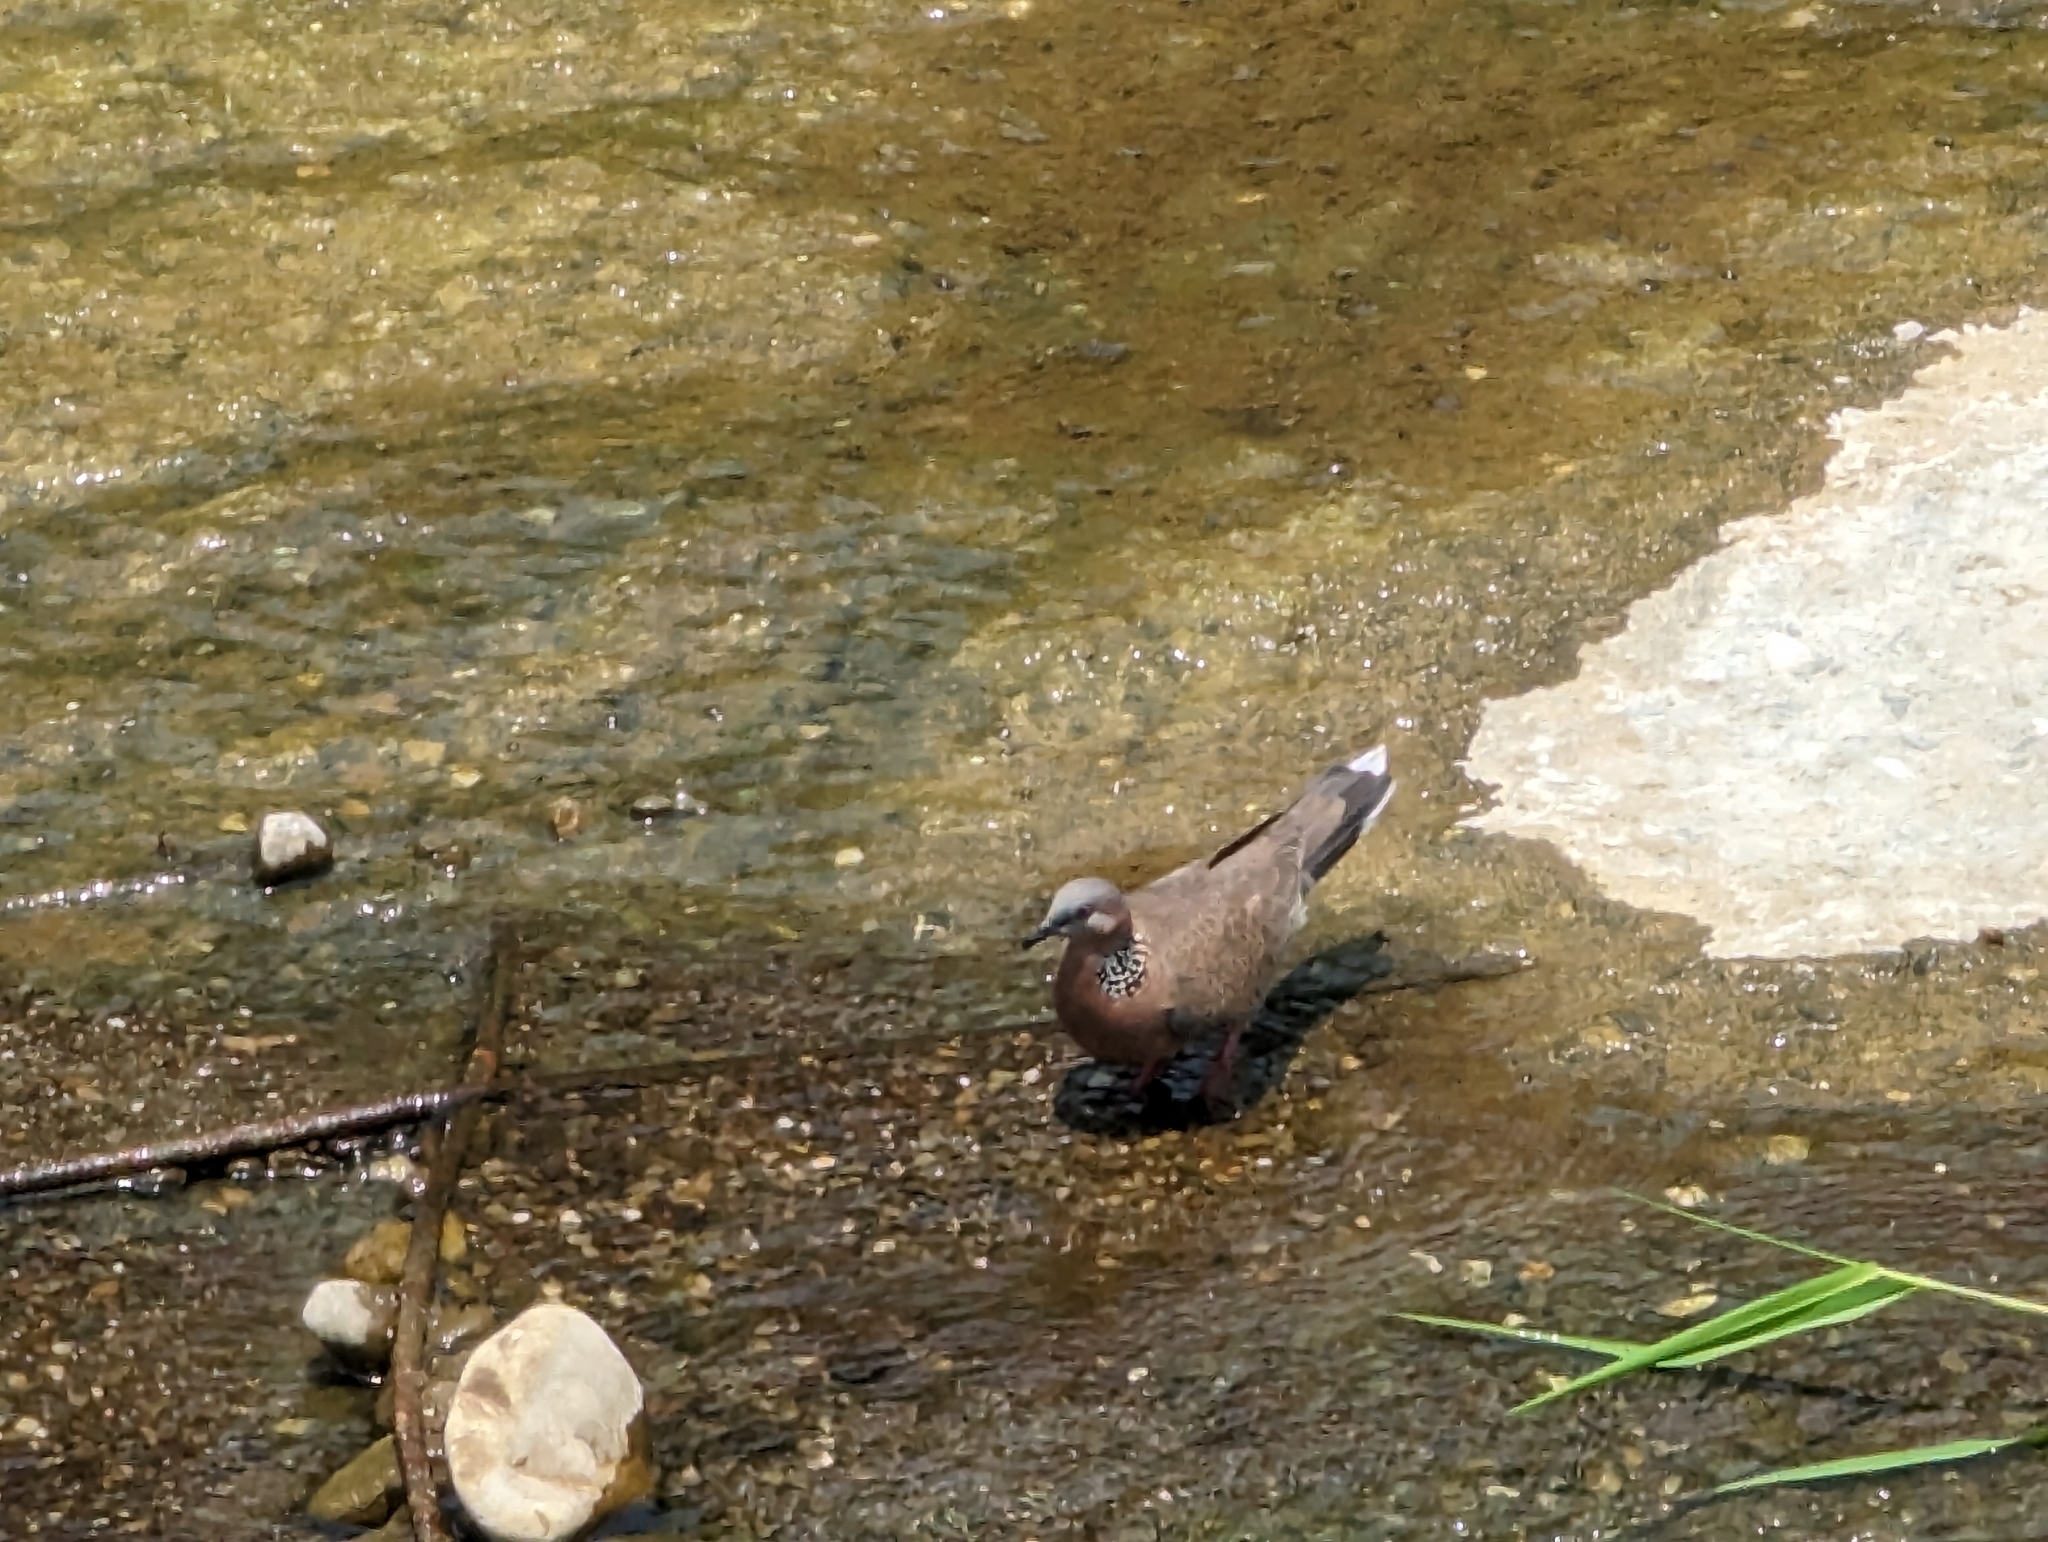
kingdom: Animalia
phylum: Chordata
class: Aves
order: Columbiformes
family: Columbidae
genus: Spilopelia
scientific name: Spilopelia chinensis
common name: Spotted dove
